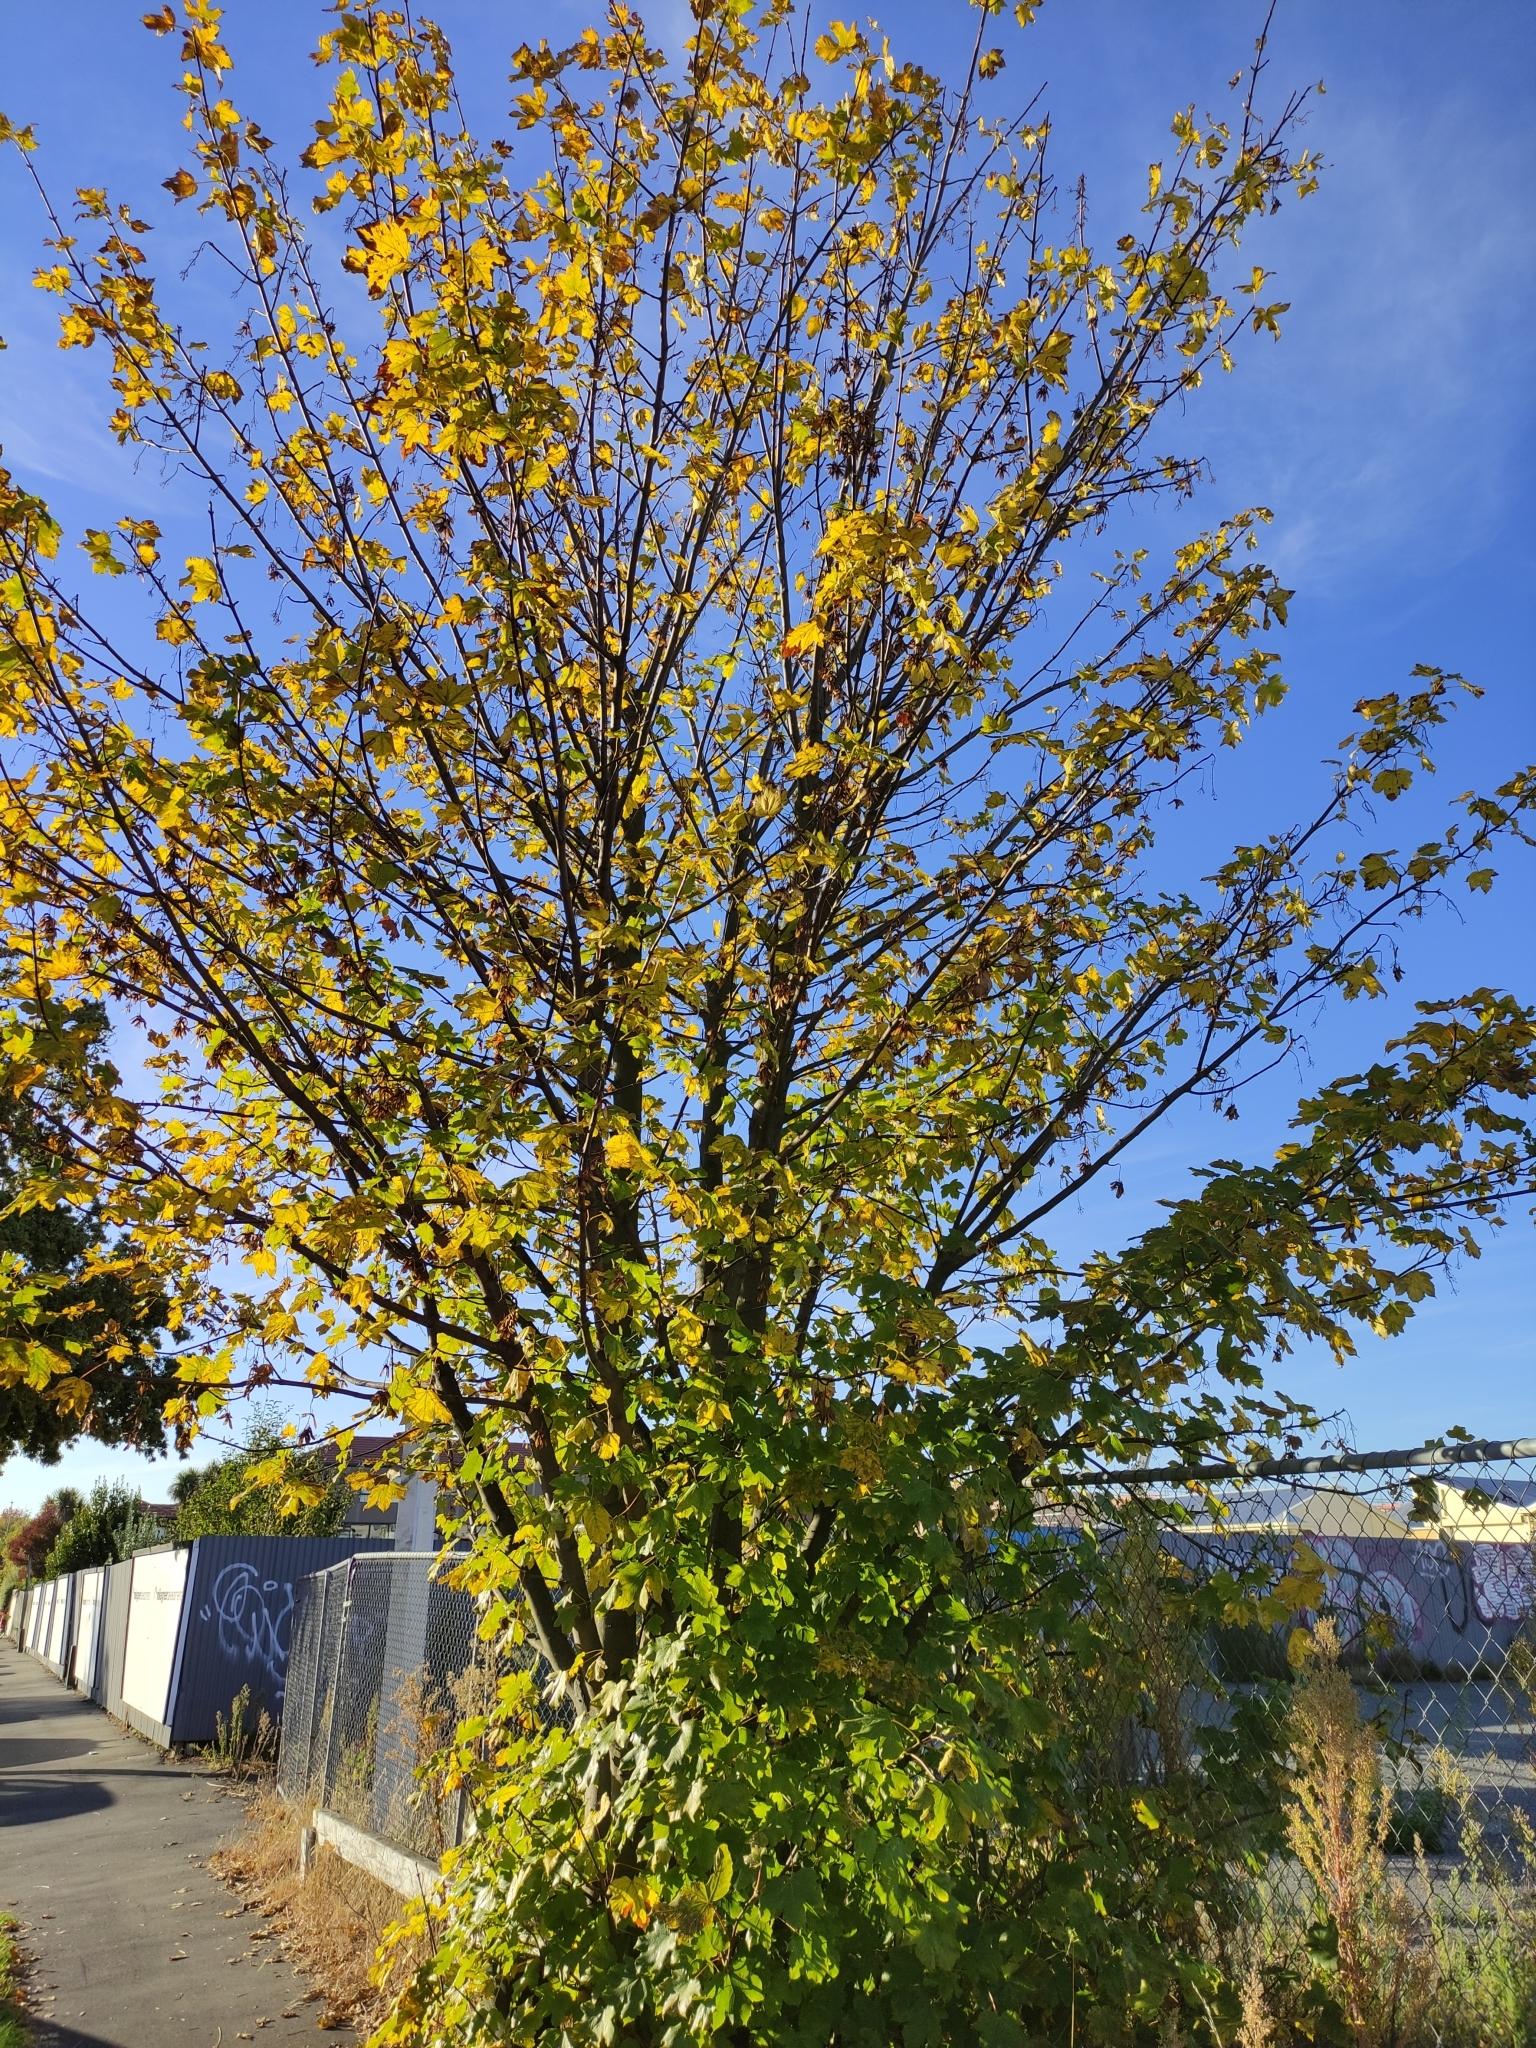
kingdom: Plantae
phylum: Tracheophyta
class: Magnoliopsida
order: Sapindales
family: Sapindaceae
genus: Acer
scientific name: Acer pseudoplatanus
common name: Sycamore
